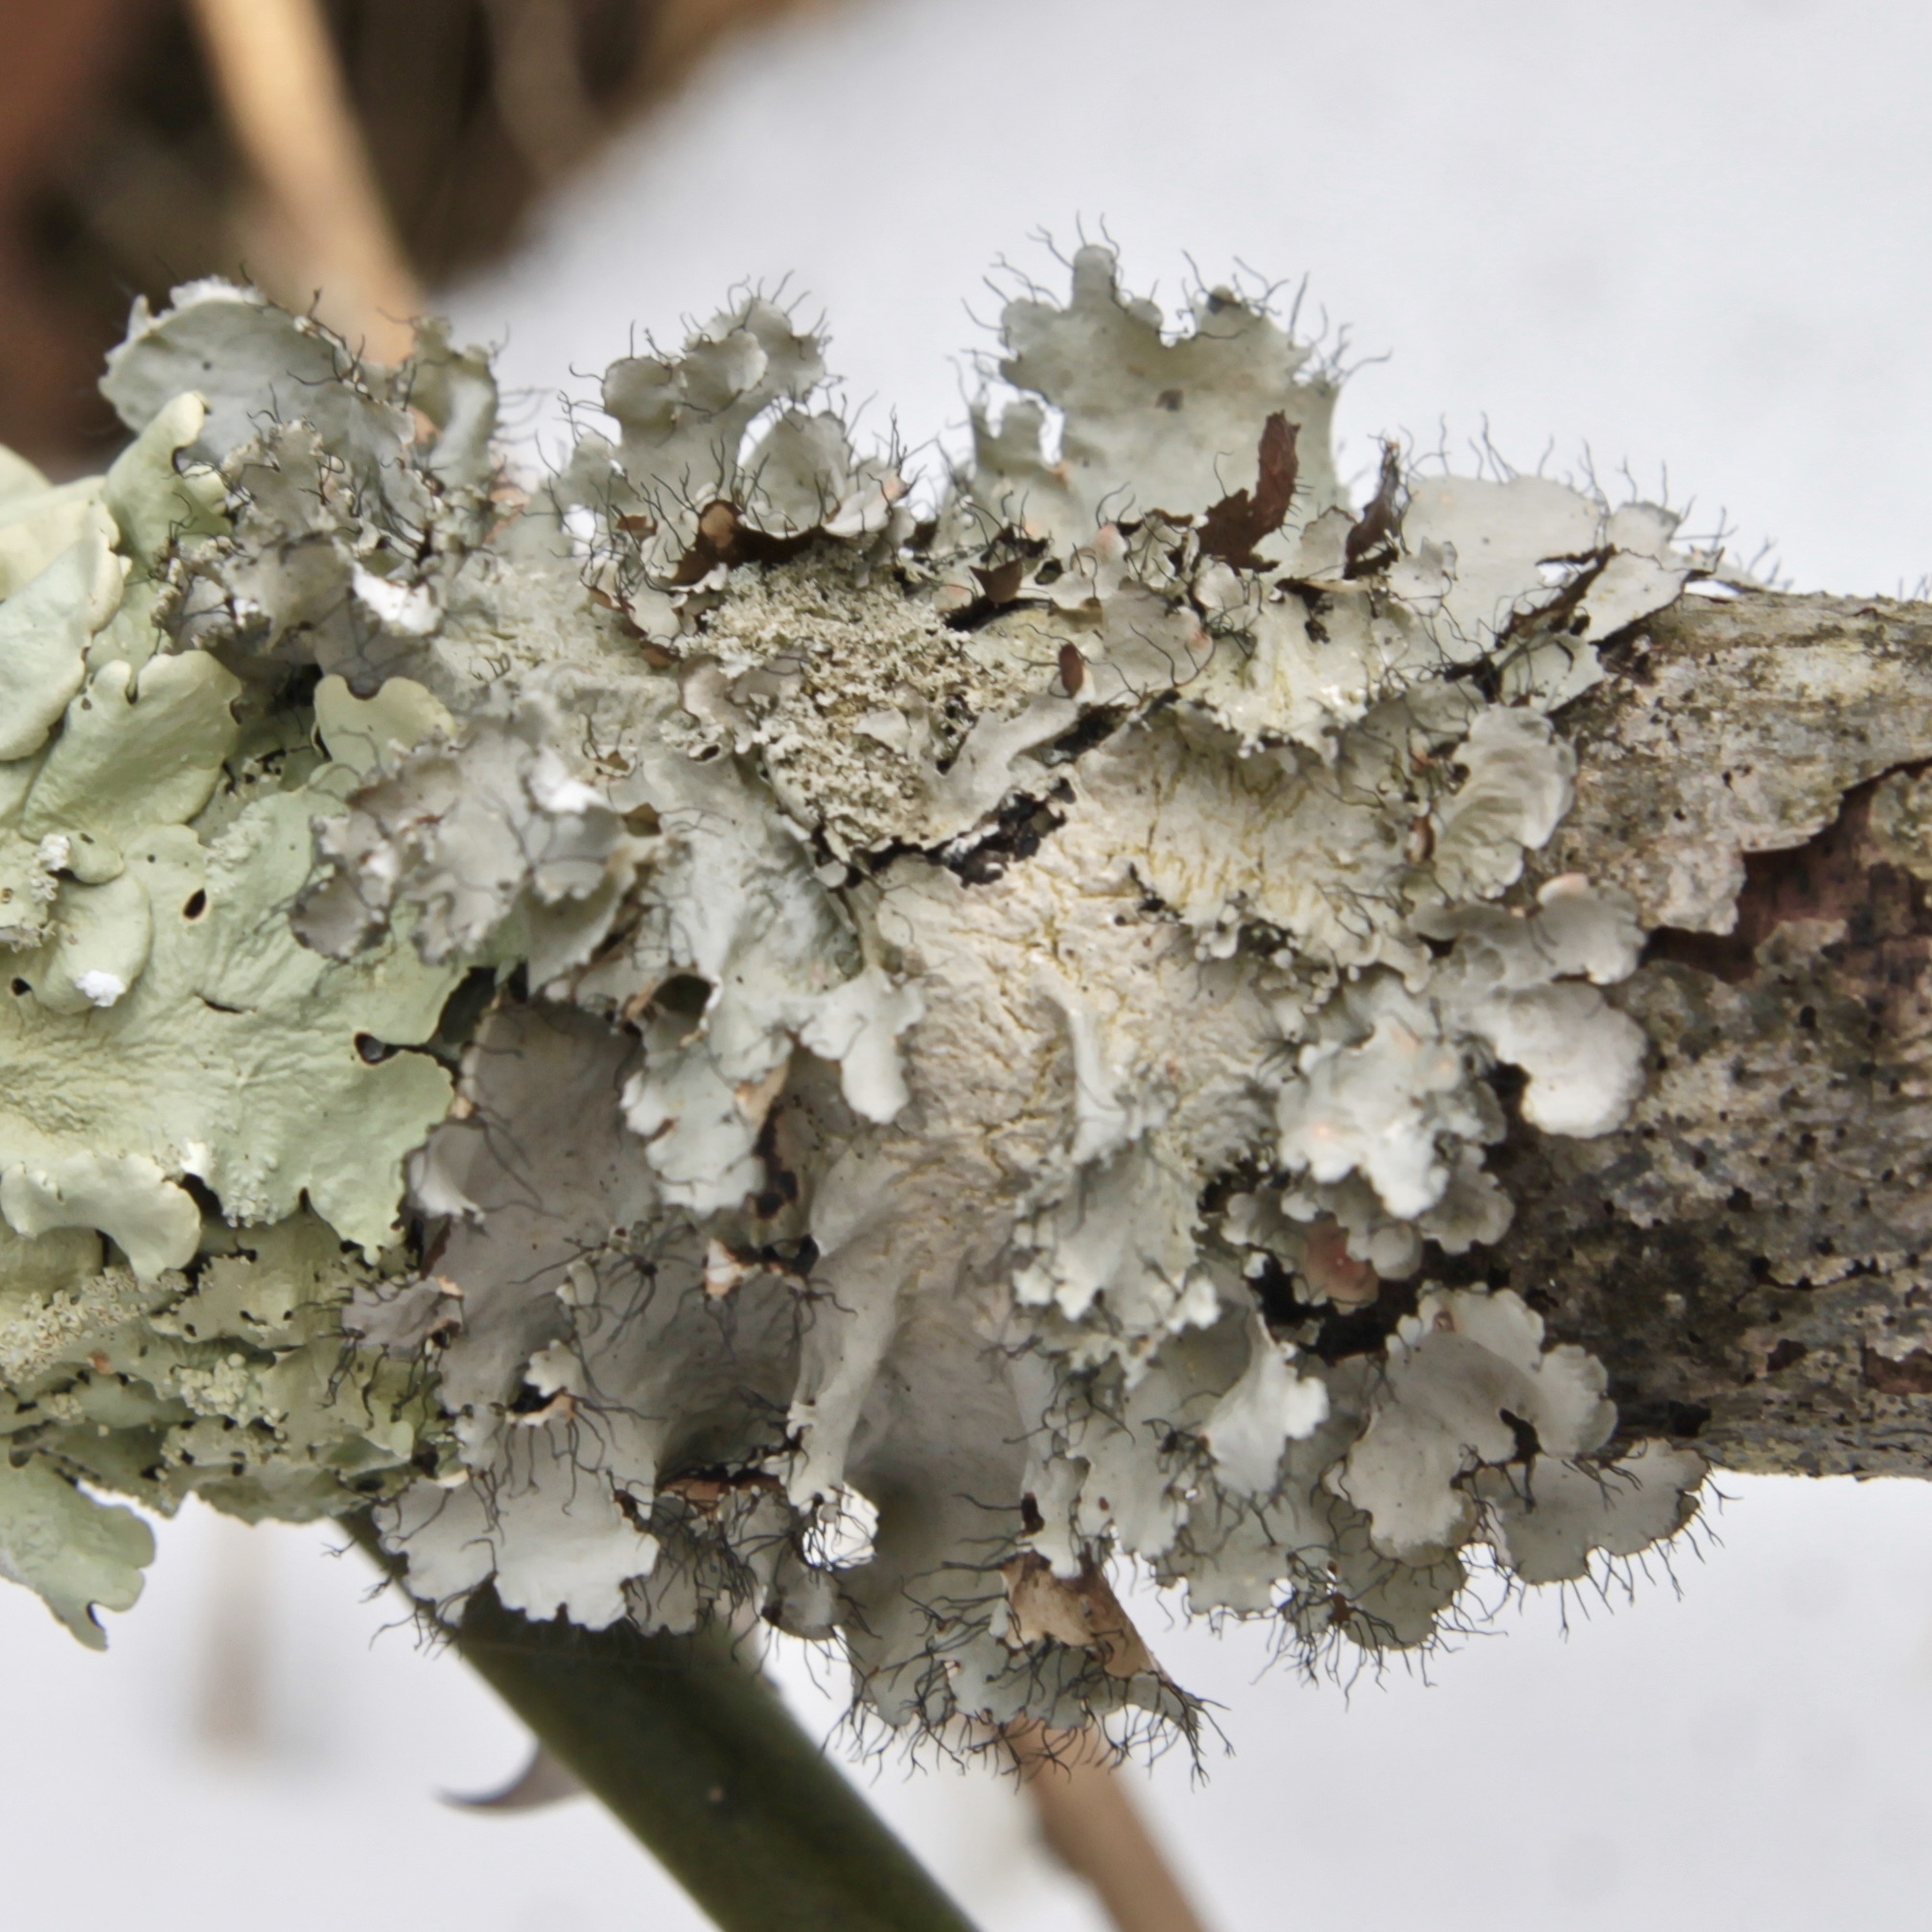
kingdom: Fungi
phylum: Ascomycota
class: Lecanoromycetes
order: Lecanorales
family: Parmeliaceae
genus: Parmotrema
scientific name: Parmotrema hypotropum
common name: Powdered ruffle lichen
